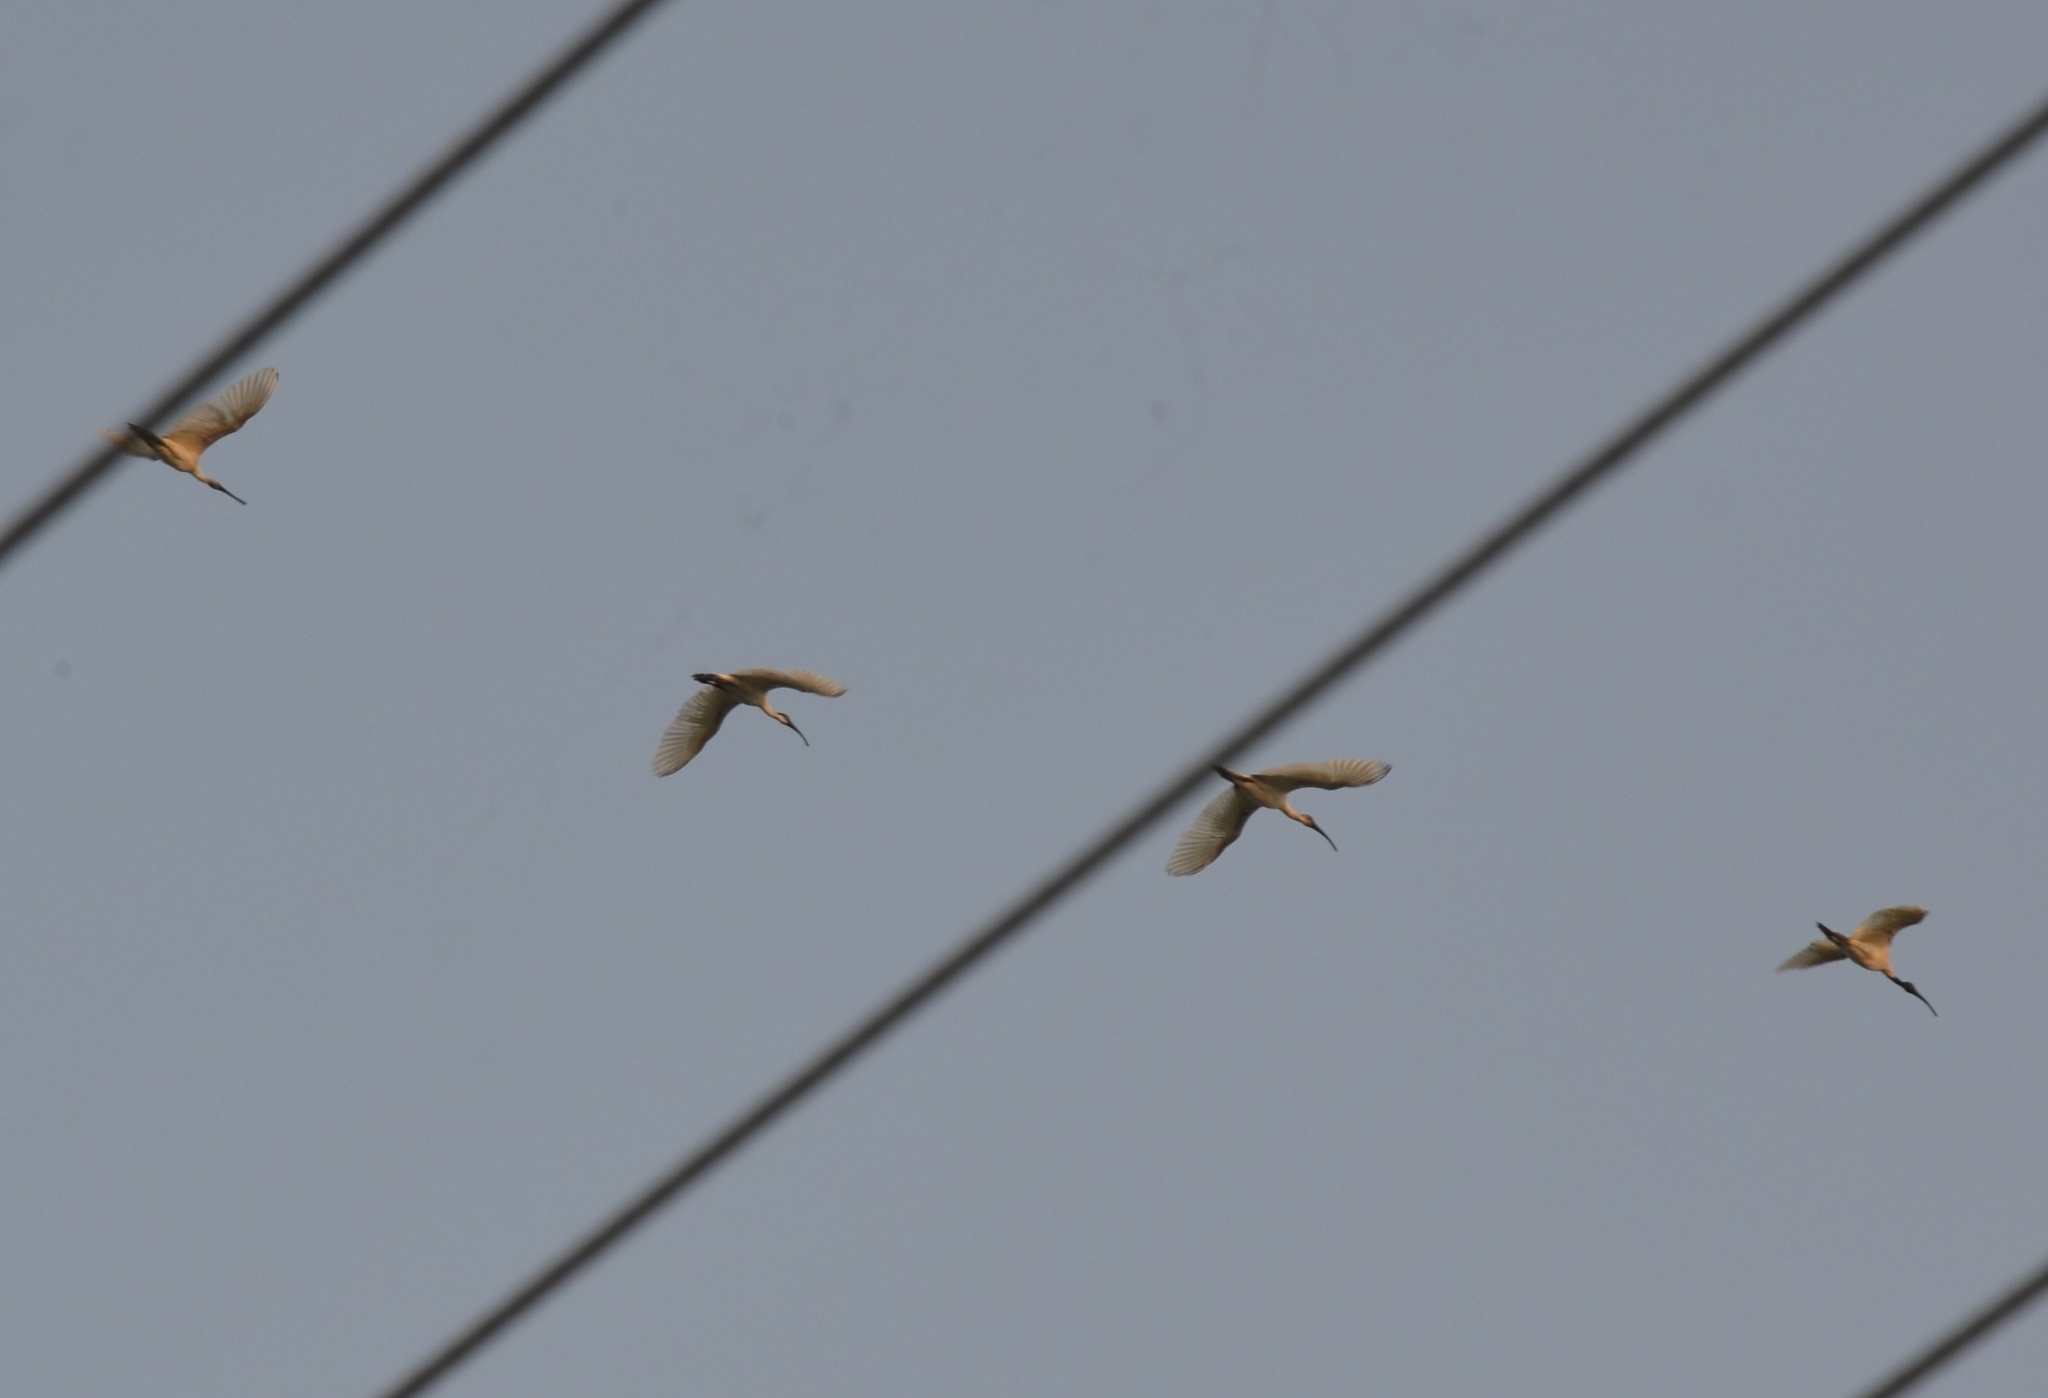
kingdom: Animalia
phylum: Chordata
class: Aves
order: Pelecaniformes
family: Threskiornithidae
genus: Threskiornis
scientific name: Threskiornis melanocephalus
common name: Black-headed ibis
